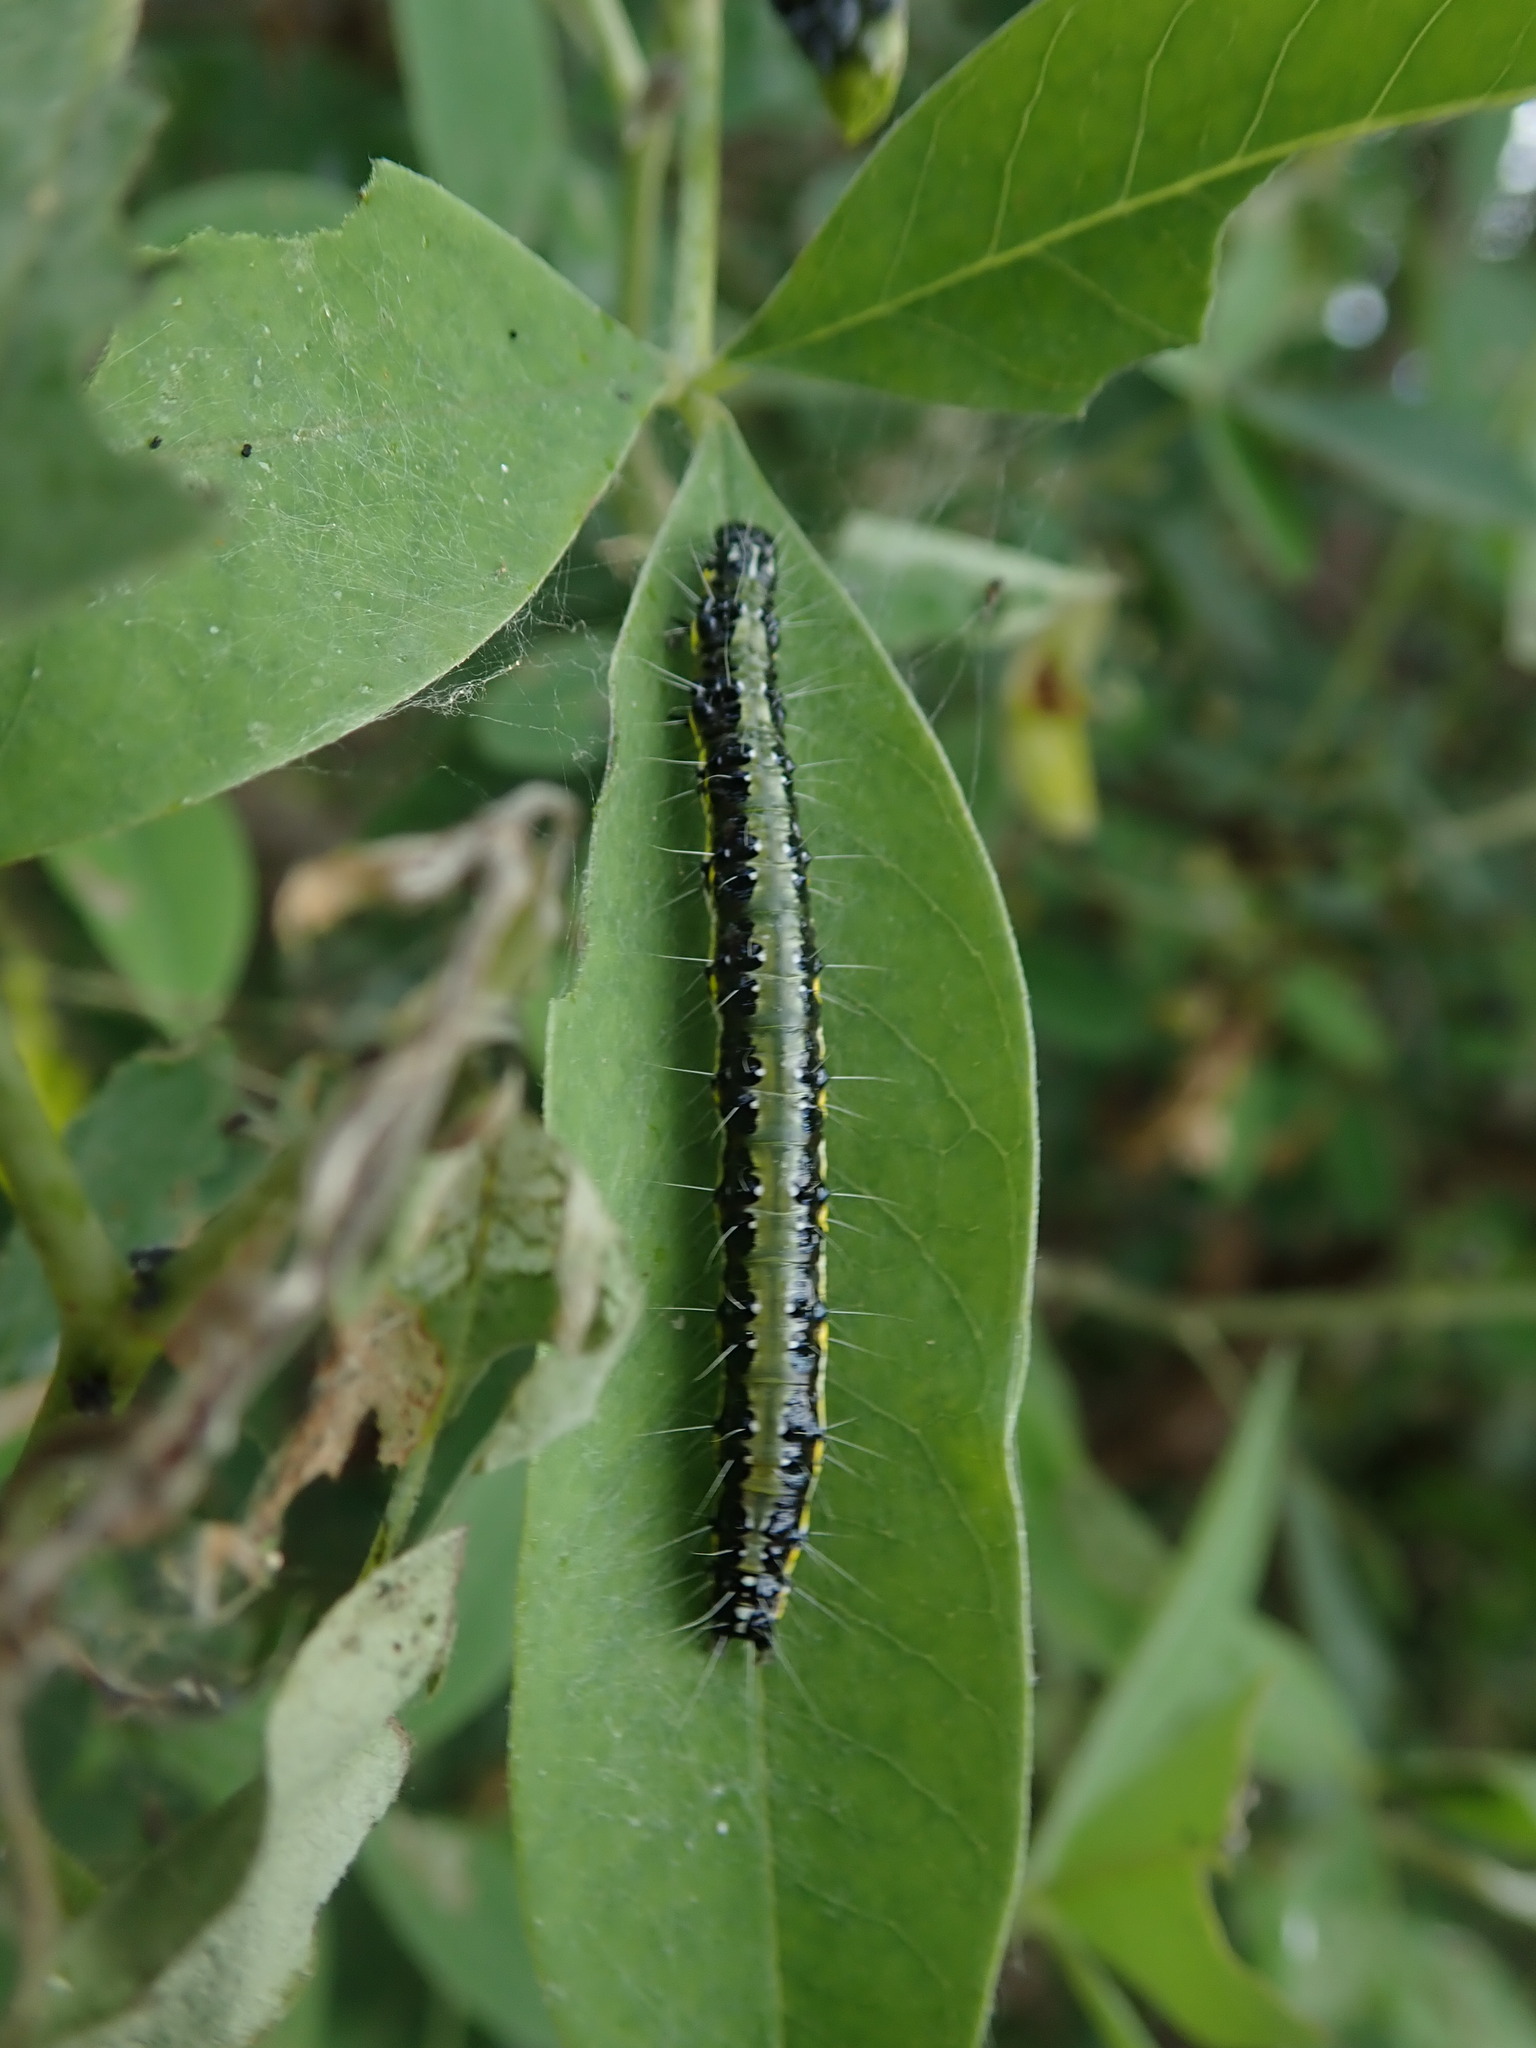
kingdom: Animalia
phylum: Arthropoda
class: Insecta
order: Lepidoptera
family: Crambidae
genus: Uresiphita
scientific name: Uresiphita gilvata
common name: Yellow-underwing pearl
